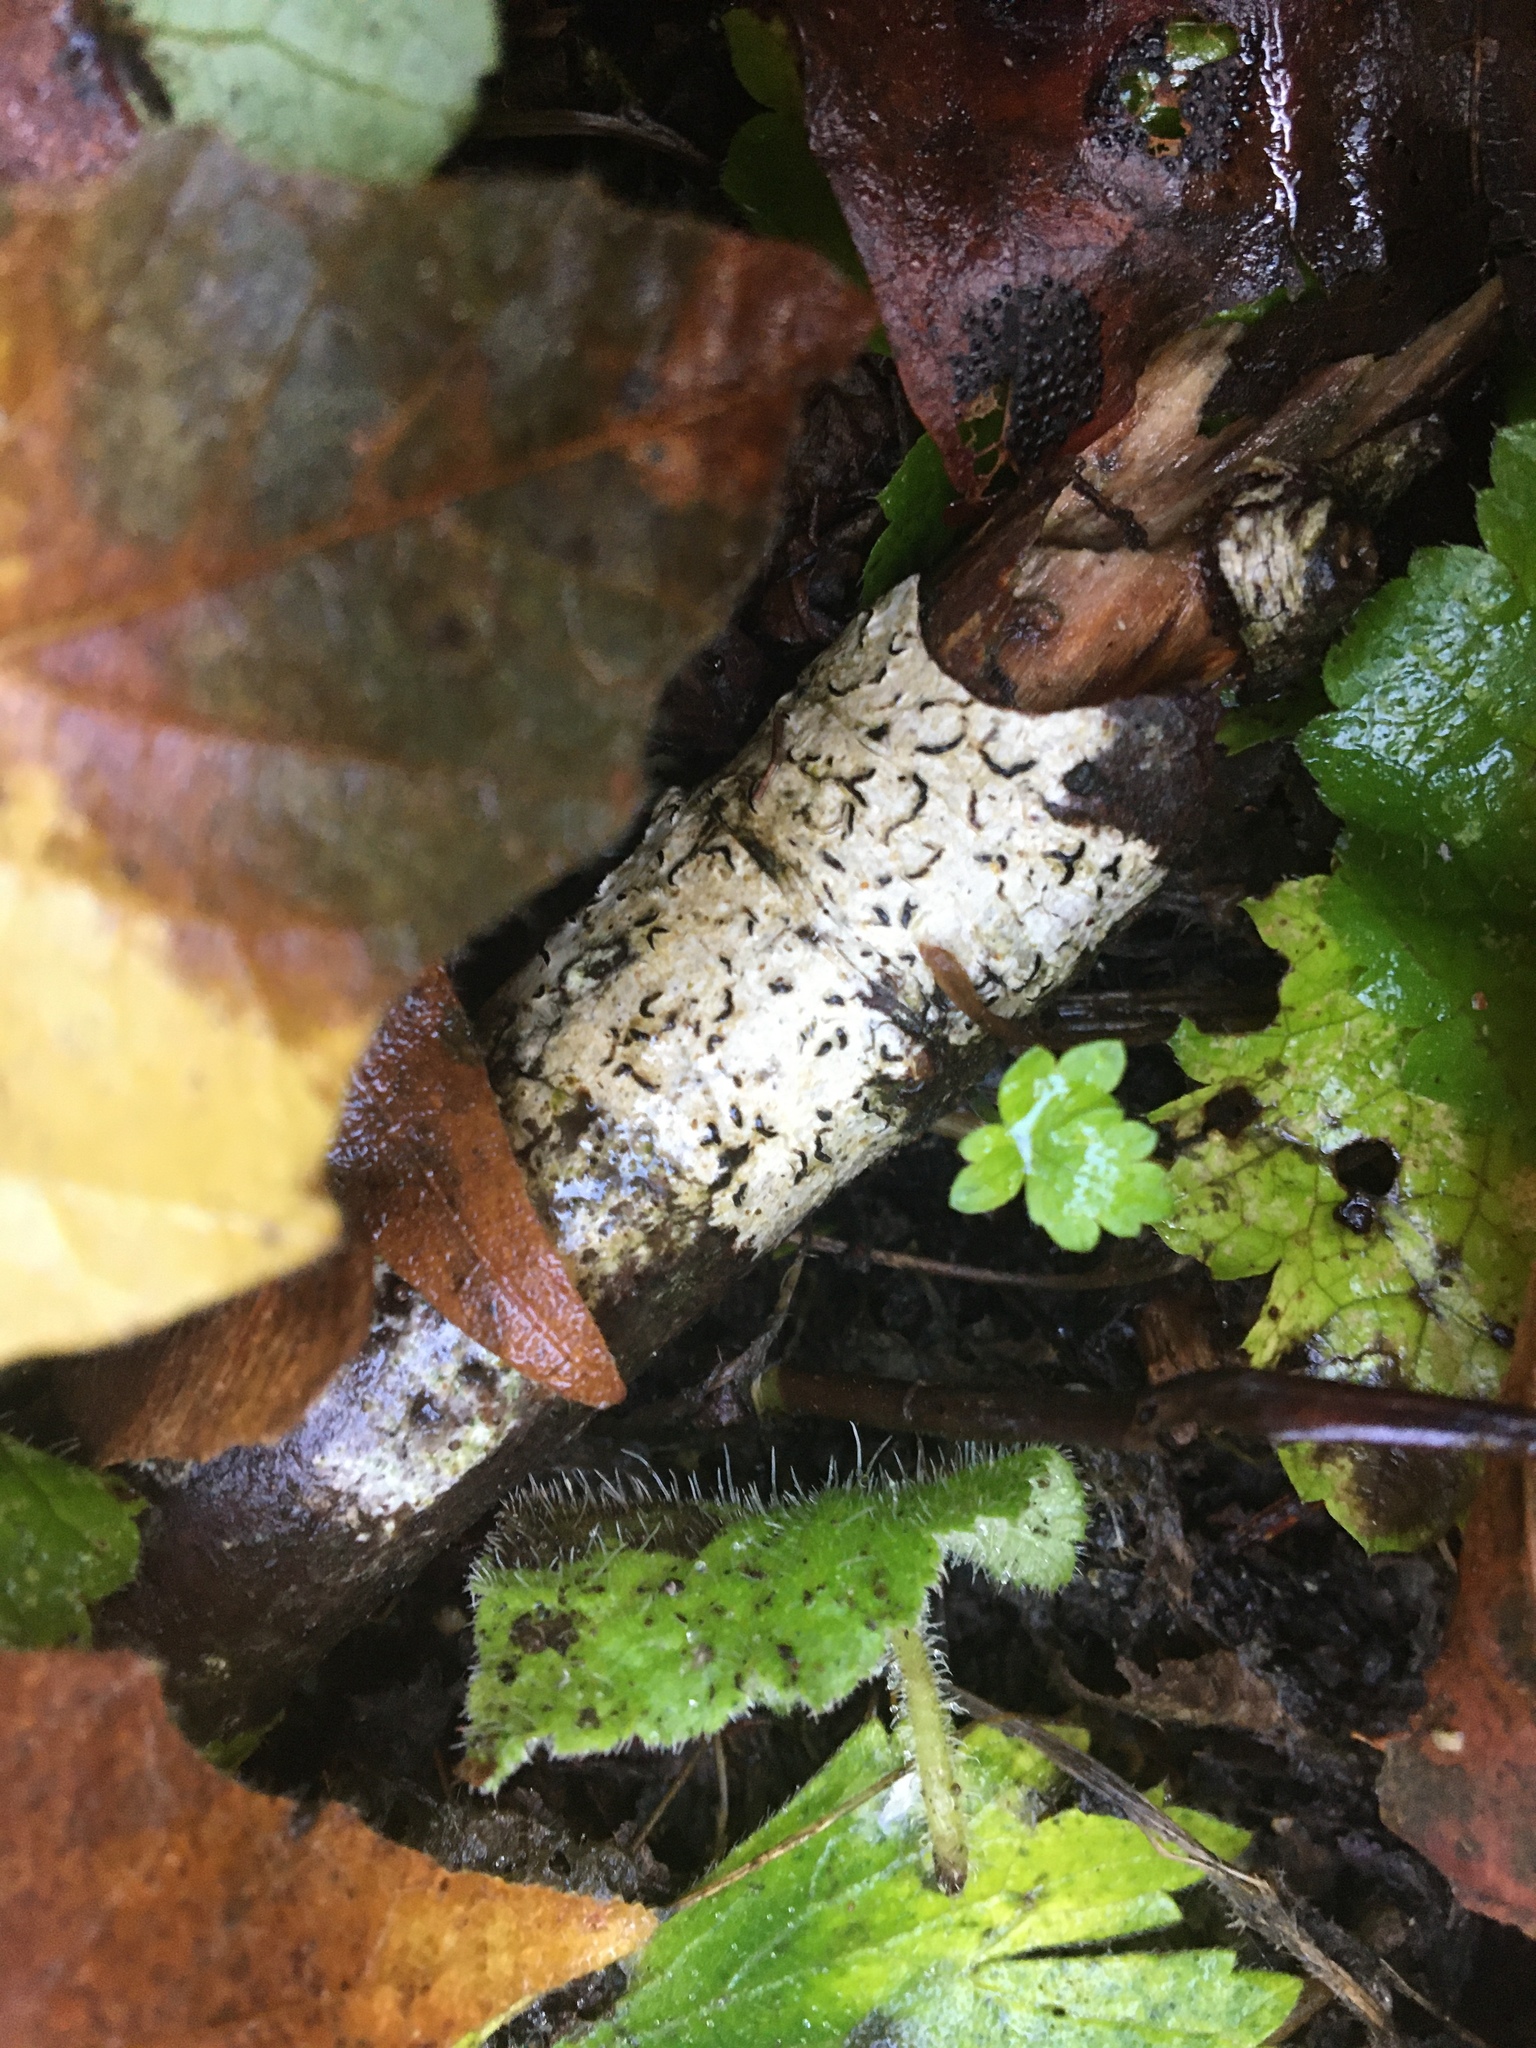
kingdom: Fungi
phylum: Ascomycota
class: Lecanoromycetes
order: Ostropales
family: Graphidaceae
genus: Graphis
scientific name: Graphis scripta
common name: Script lichen
